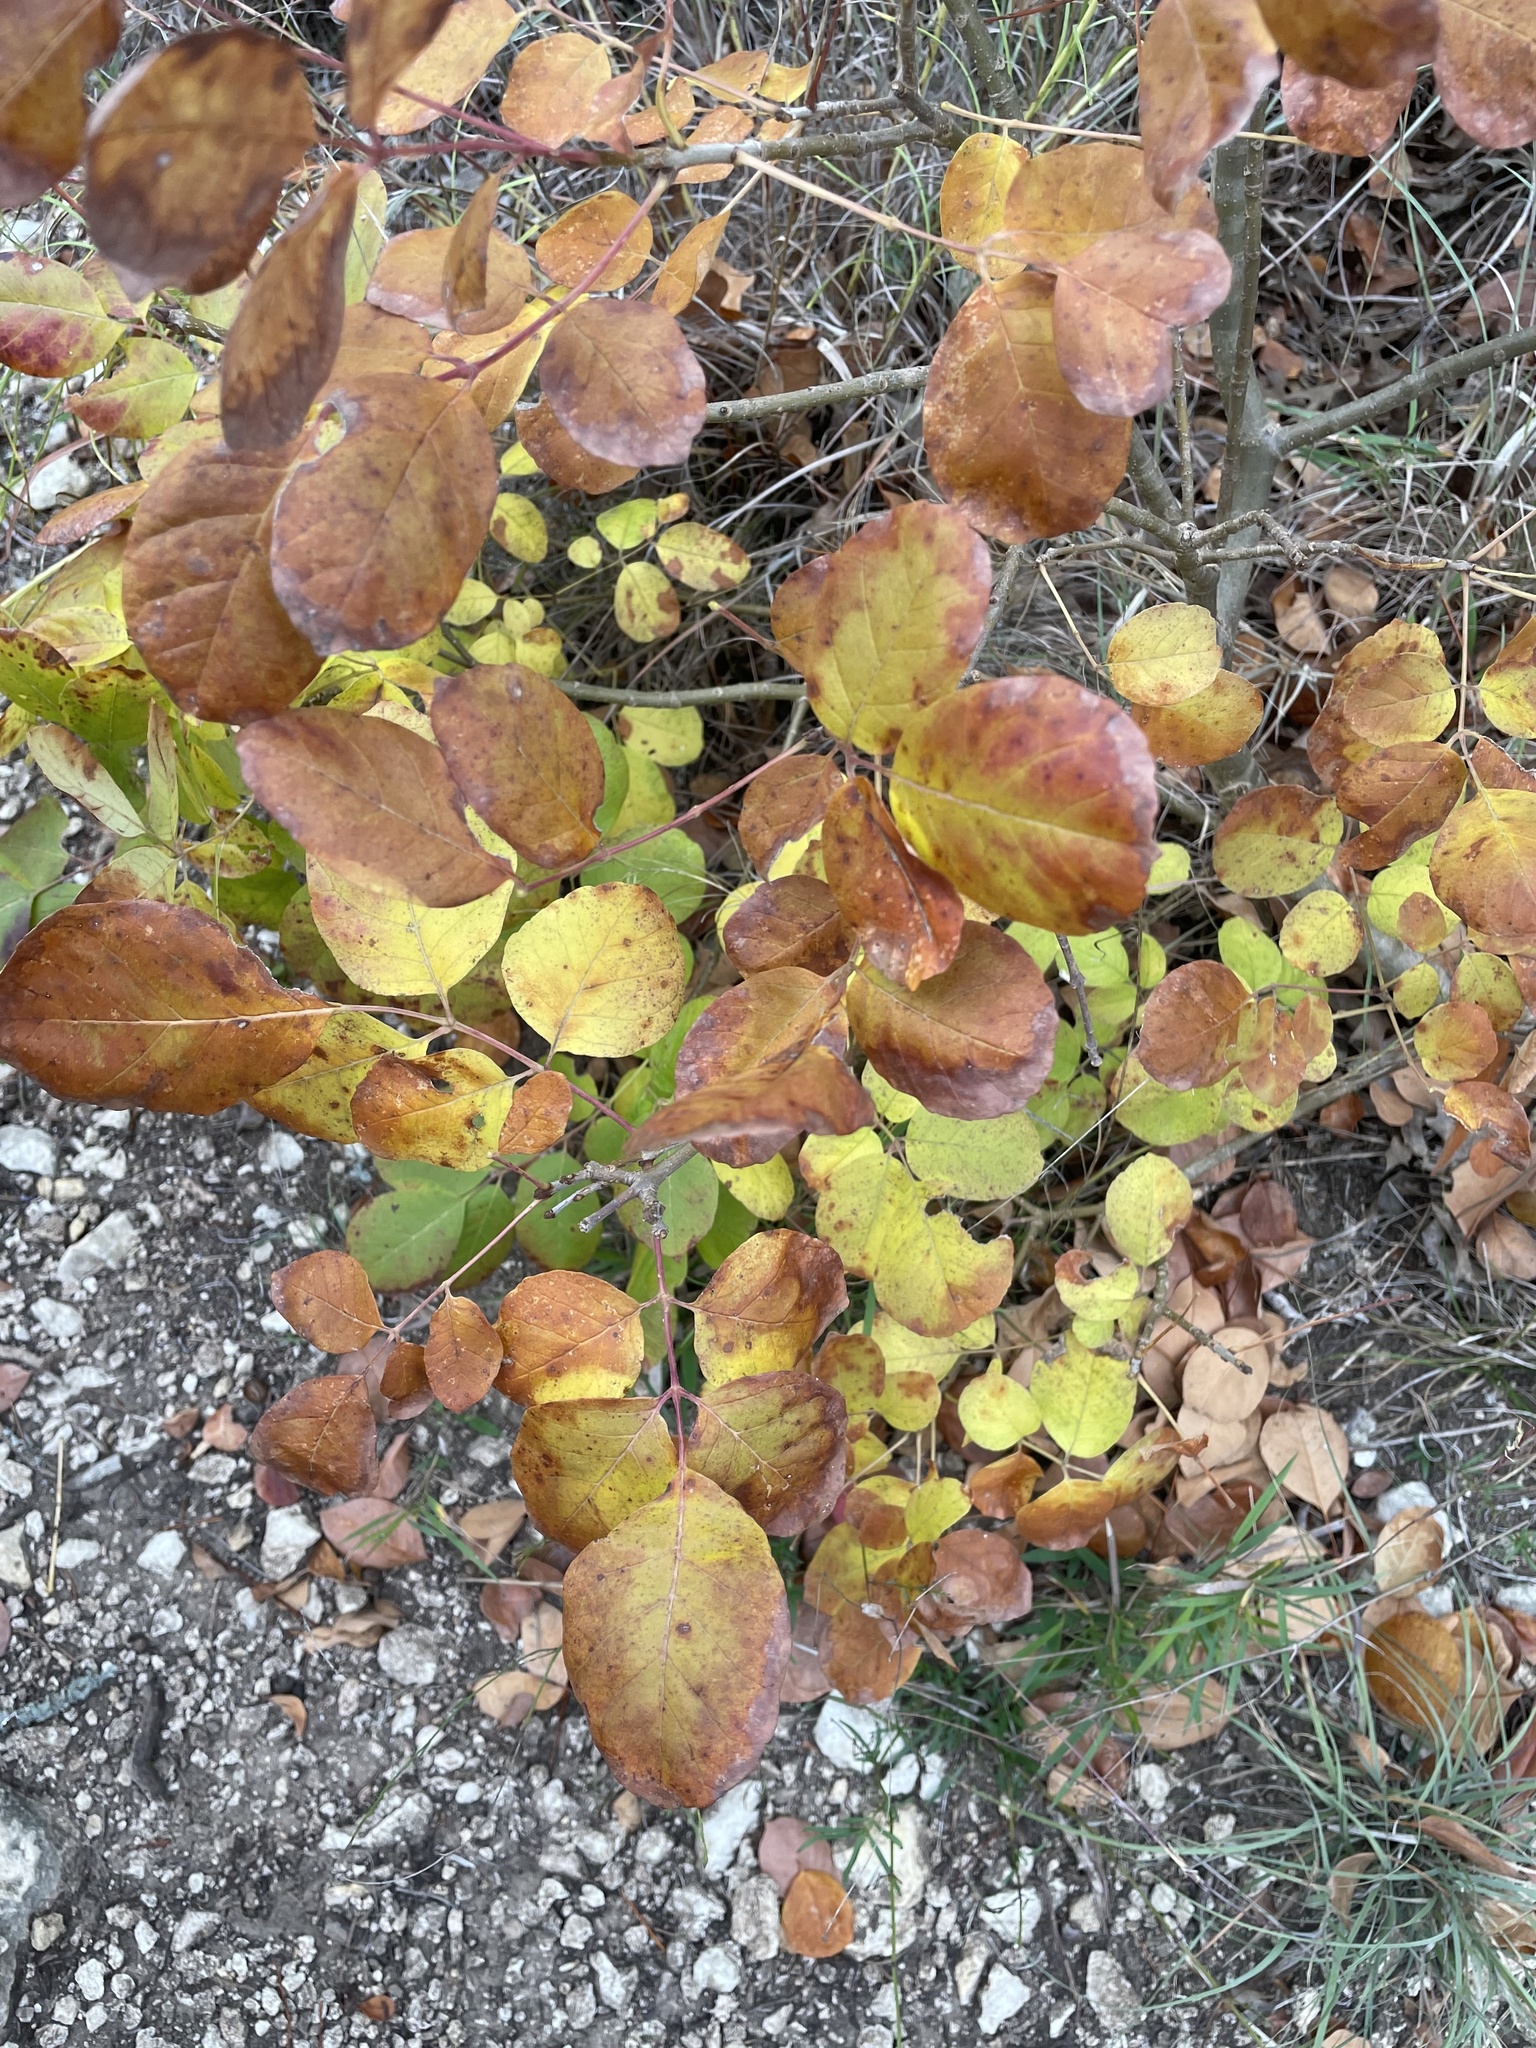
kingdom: Plantae
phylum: Tracheophyta
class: Magnoliopsida
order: Lamiales
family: Oleaceae
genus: Fraxinus
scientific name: Fraxinus albicans
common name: Texas ash
